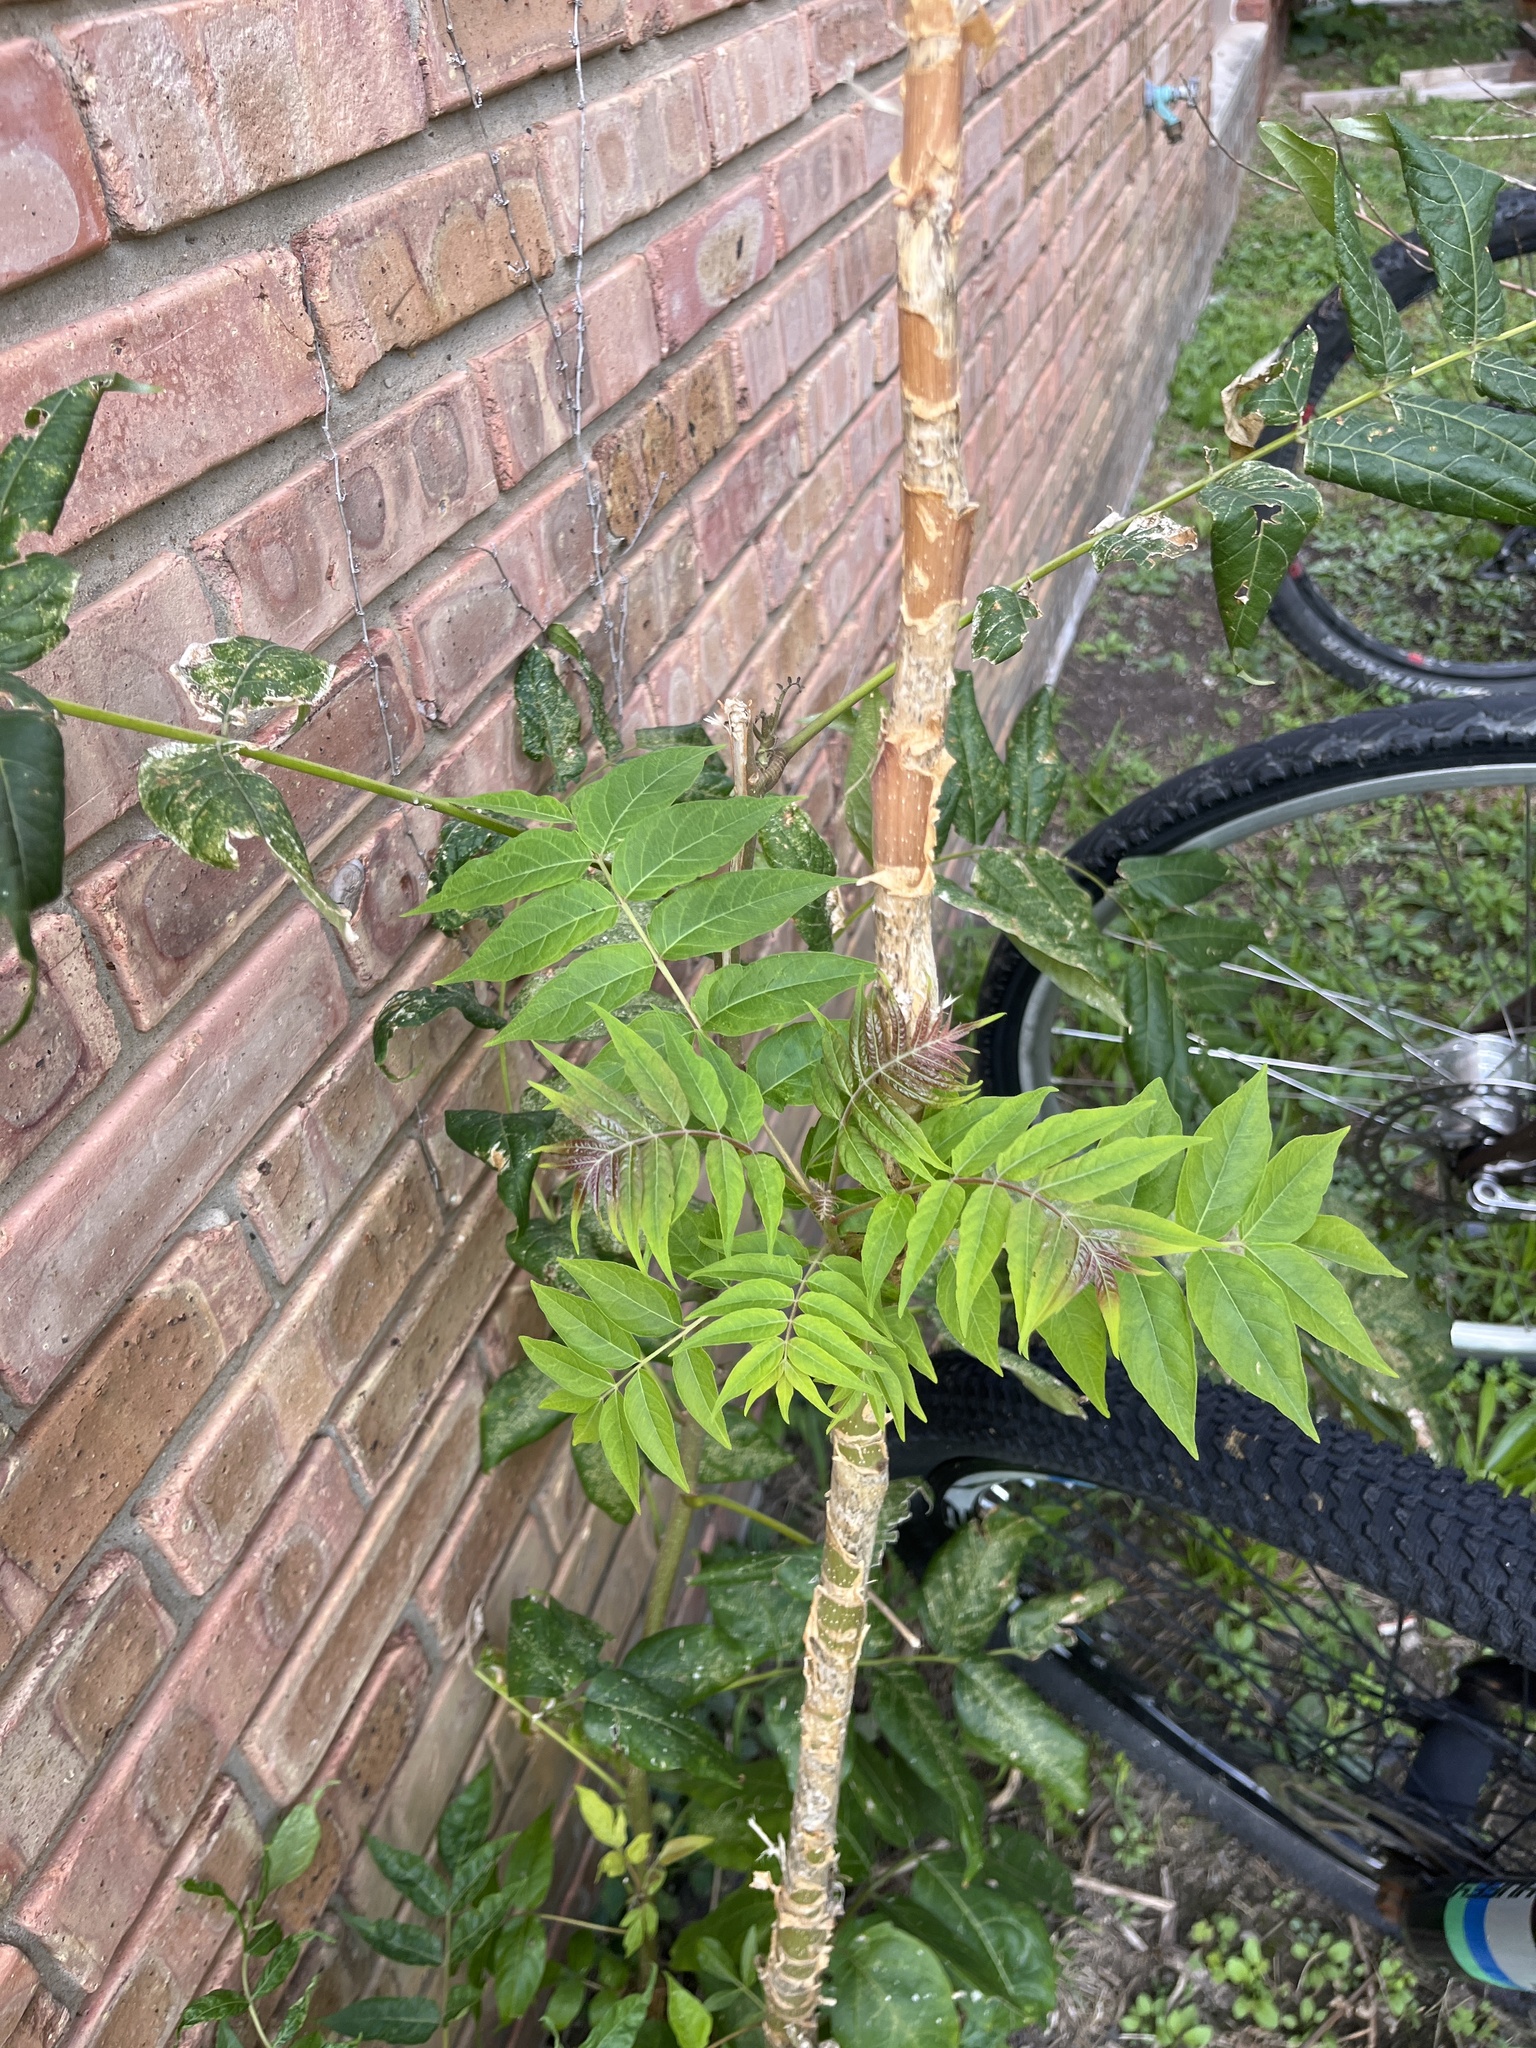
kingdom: Plantae
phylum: Tracheophyta
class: Magnoliopsida
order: Sapindales
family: Simaroubaceae
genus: Ailanthus
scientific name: Ailanthus altissima
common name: Tree-of-heaven
